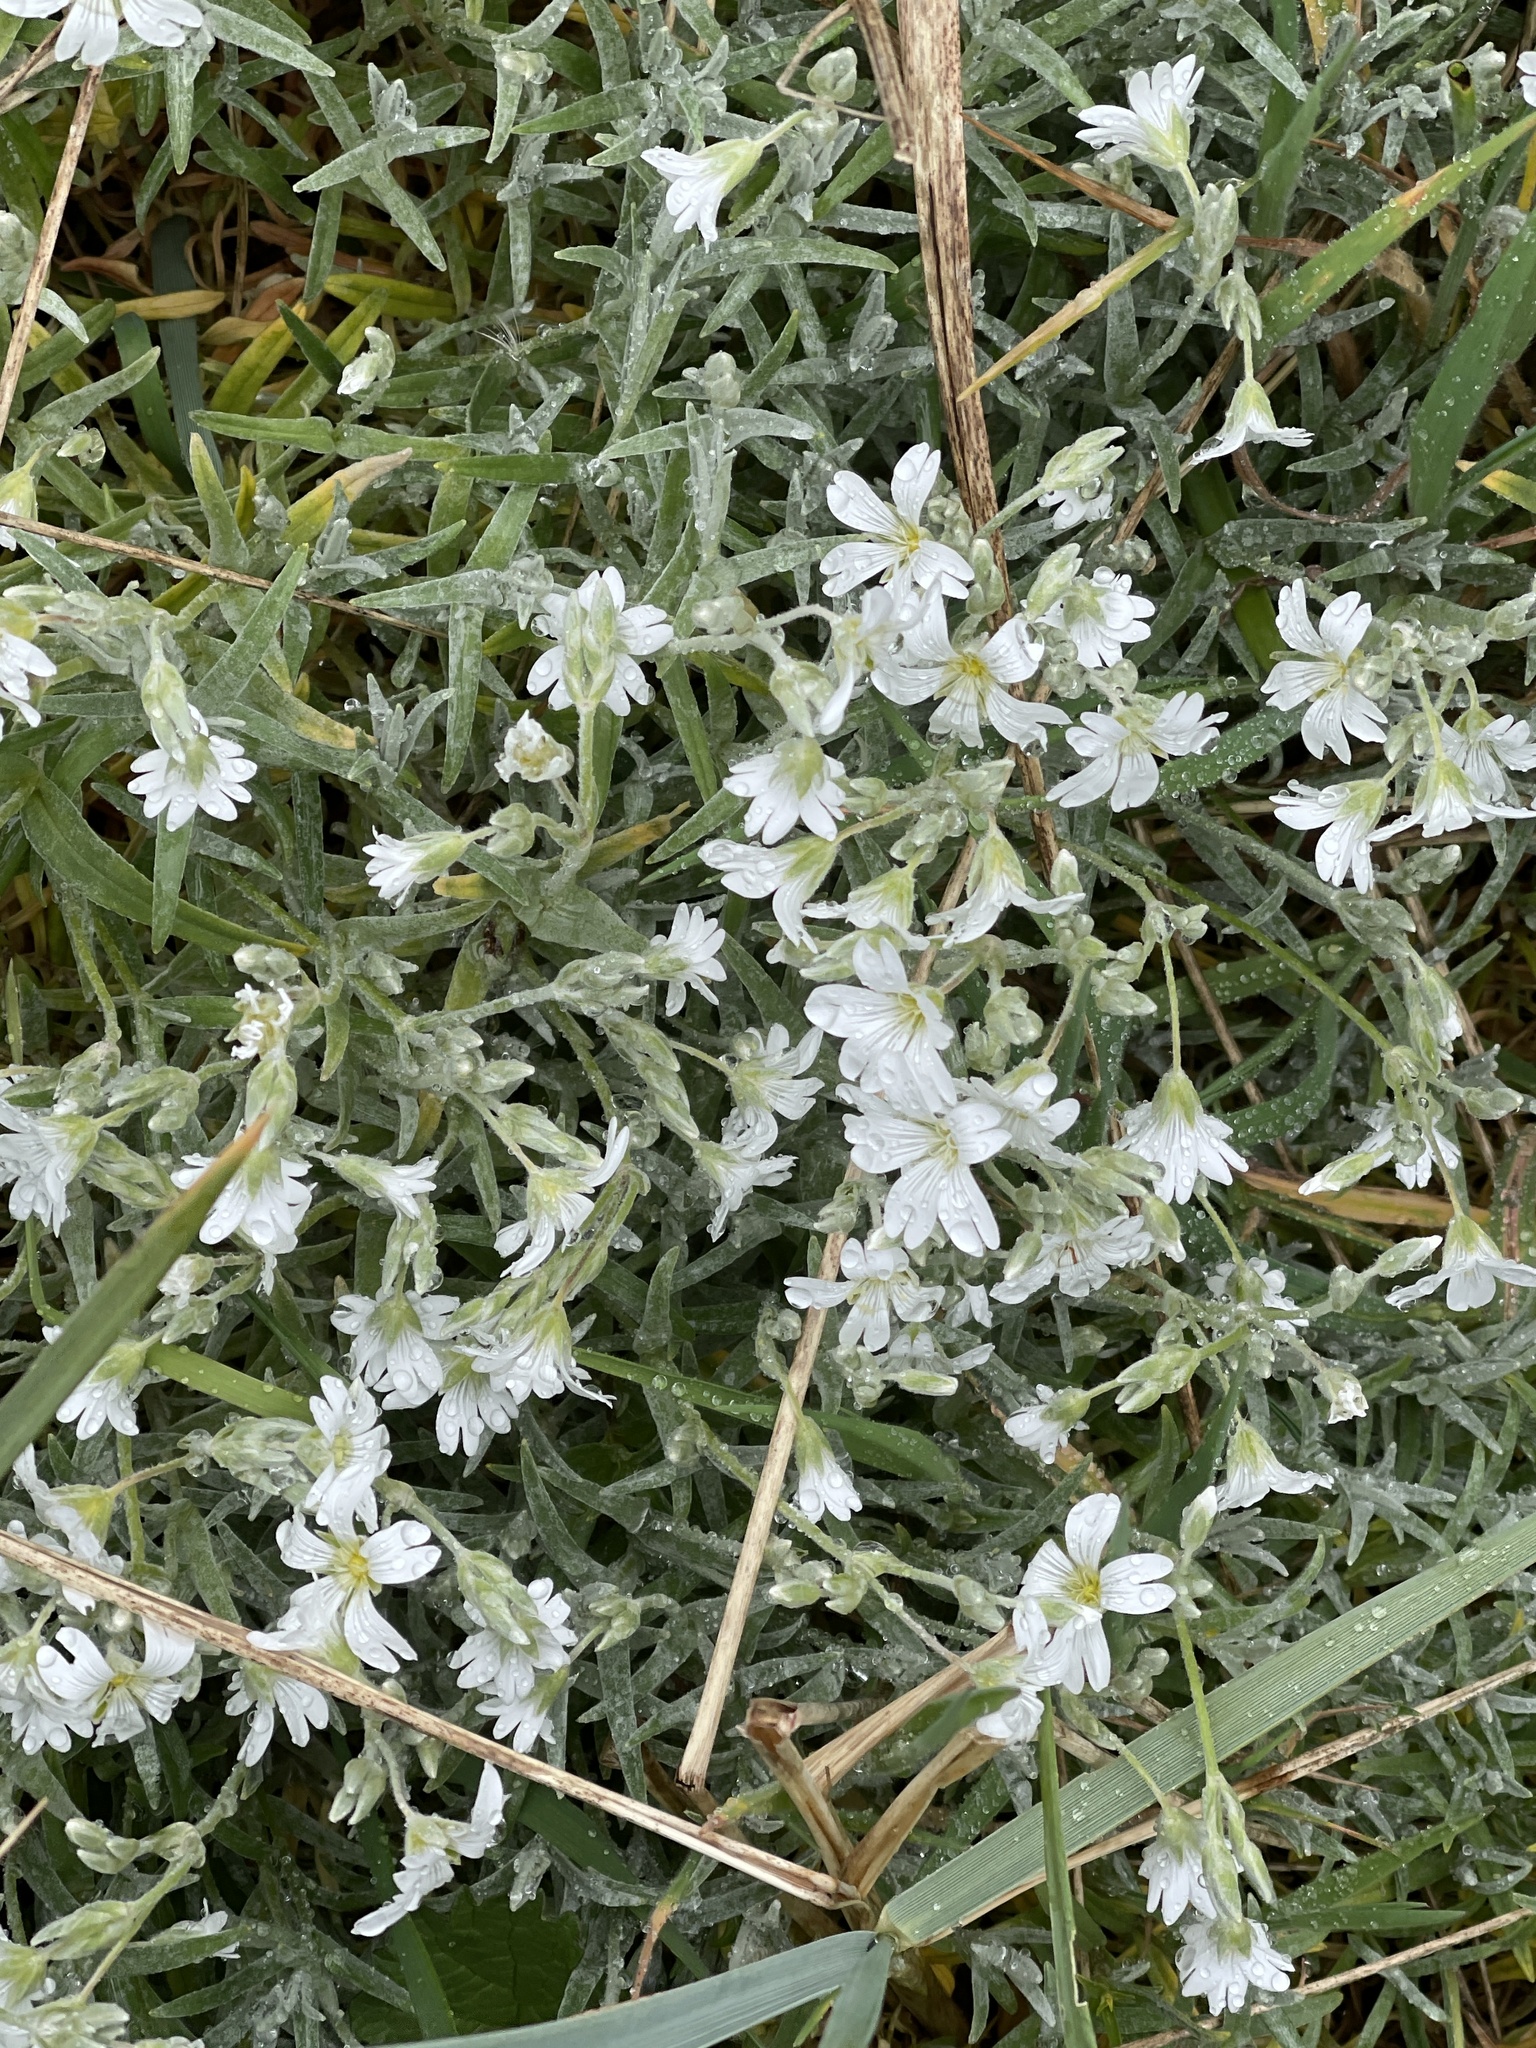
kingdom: Plantae
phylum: Tracheophyta
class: Magnoliopsida
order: Caryophyllales
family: Caryophyllaceae
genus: Cerastium
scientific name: Cerastium tomentosum
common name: Snow-in-summer
